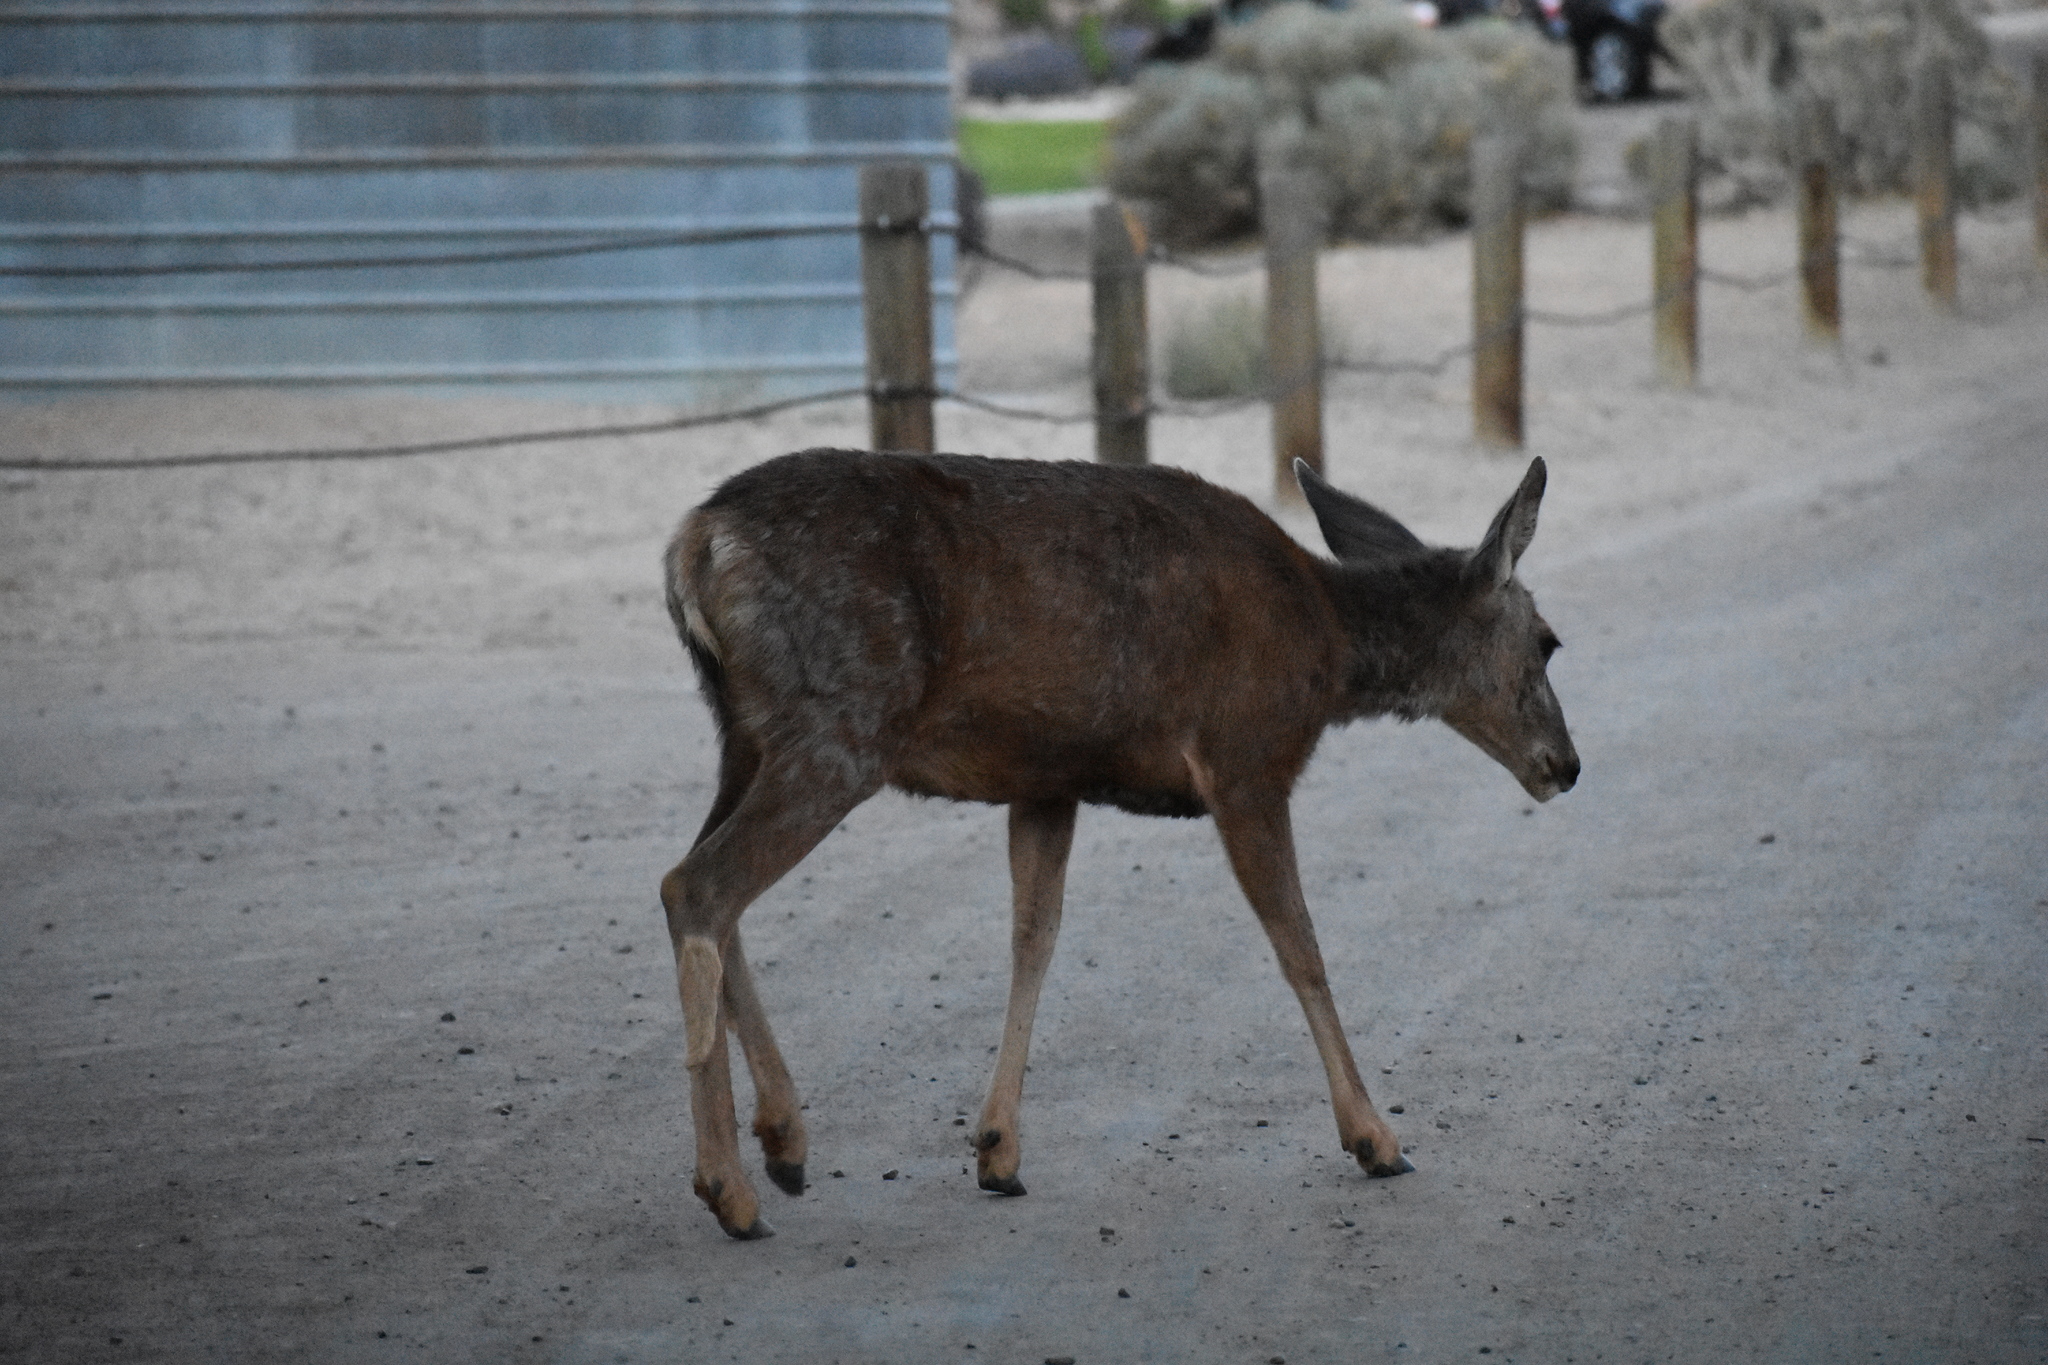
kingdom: Animalia
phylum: Chordata
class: Mammalia
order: Artiodactyla
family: Cervidae
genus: Odocoileus
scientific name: Odocoileus hemionus
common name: Mule deer
